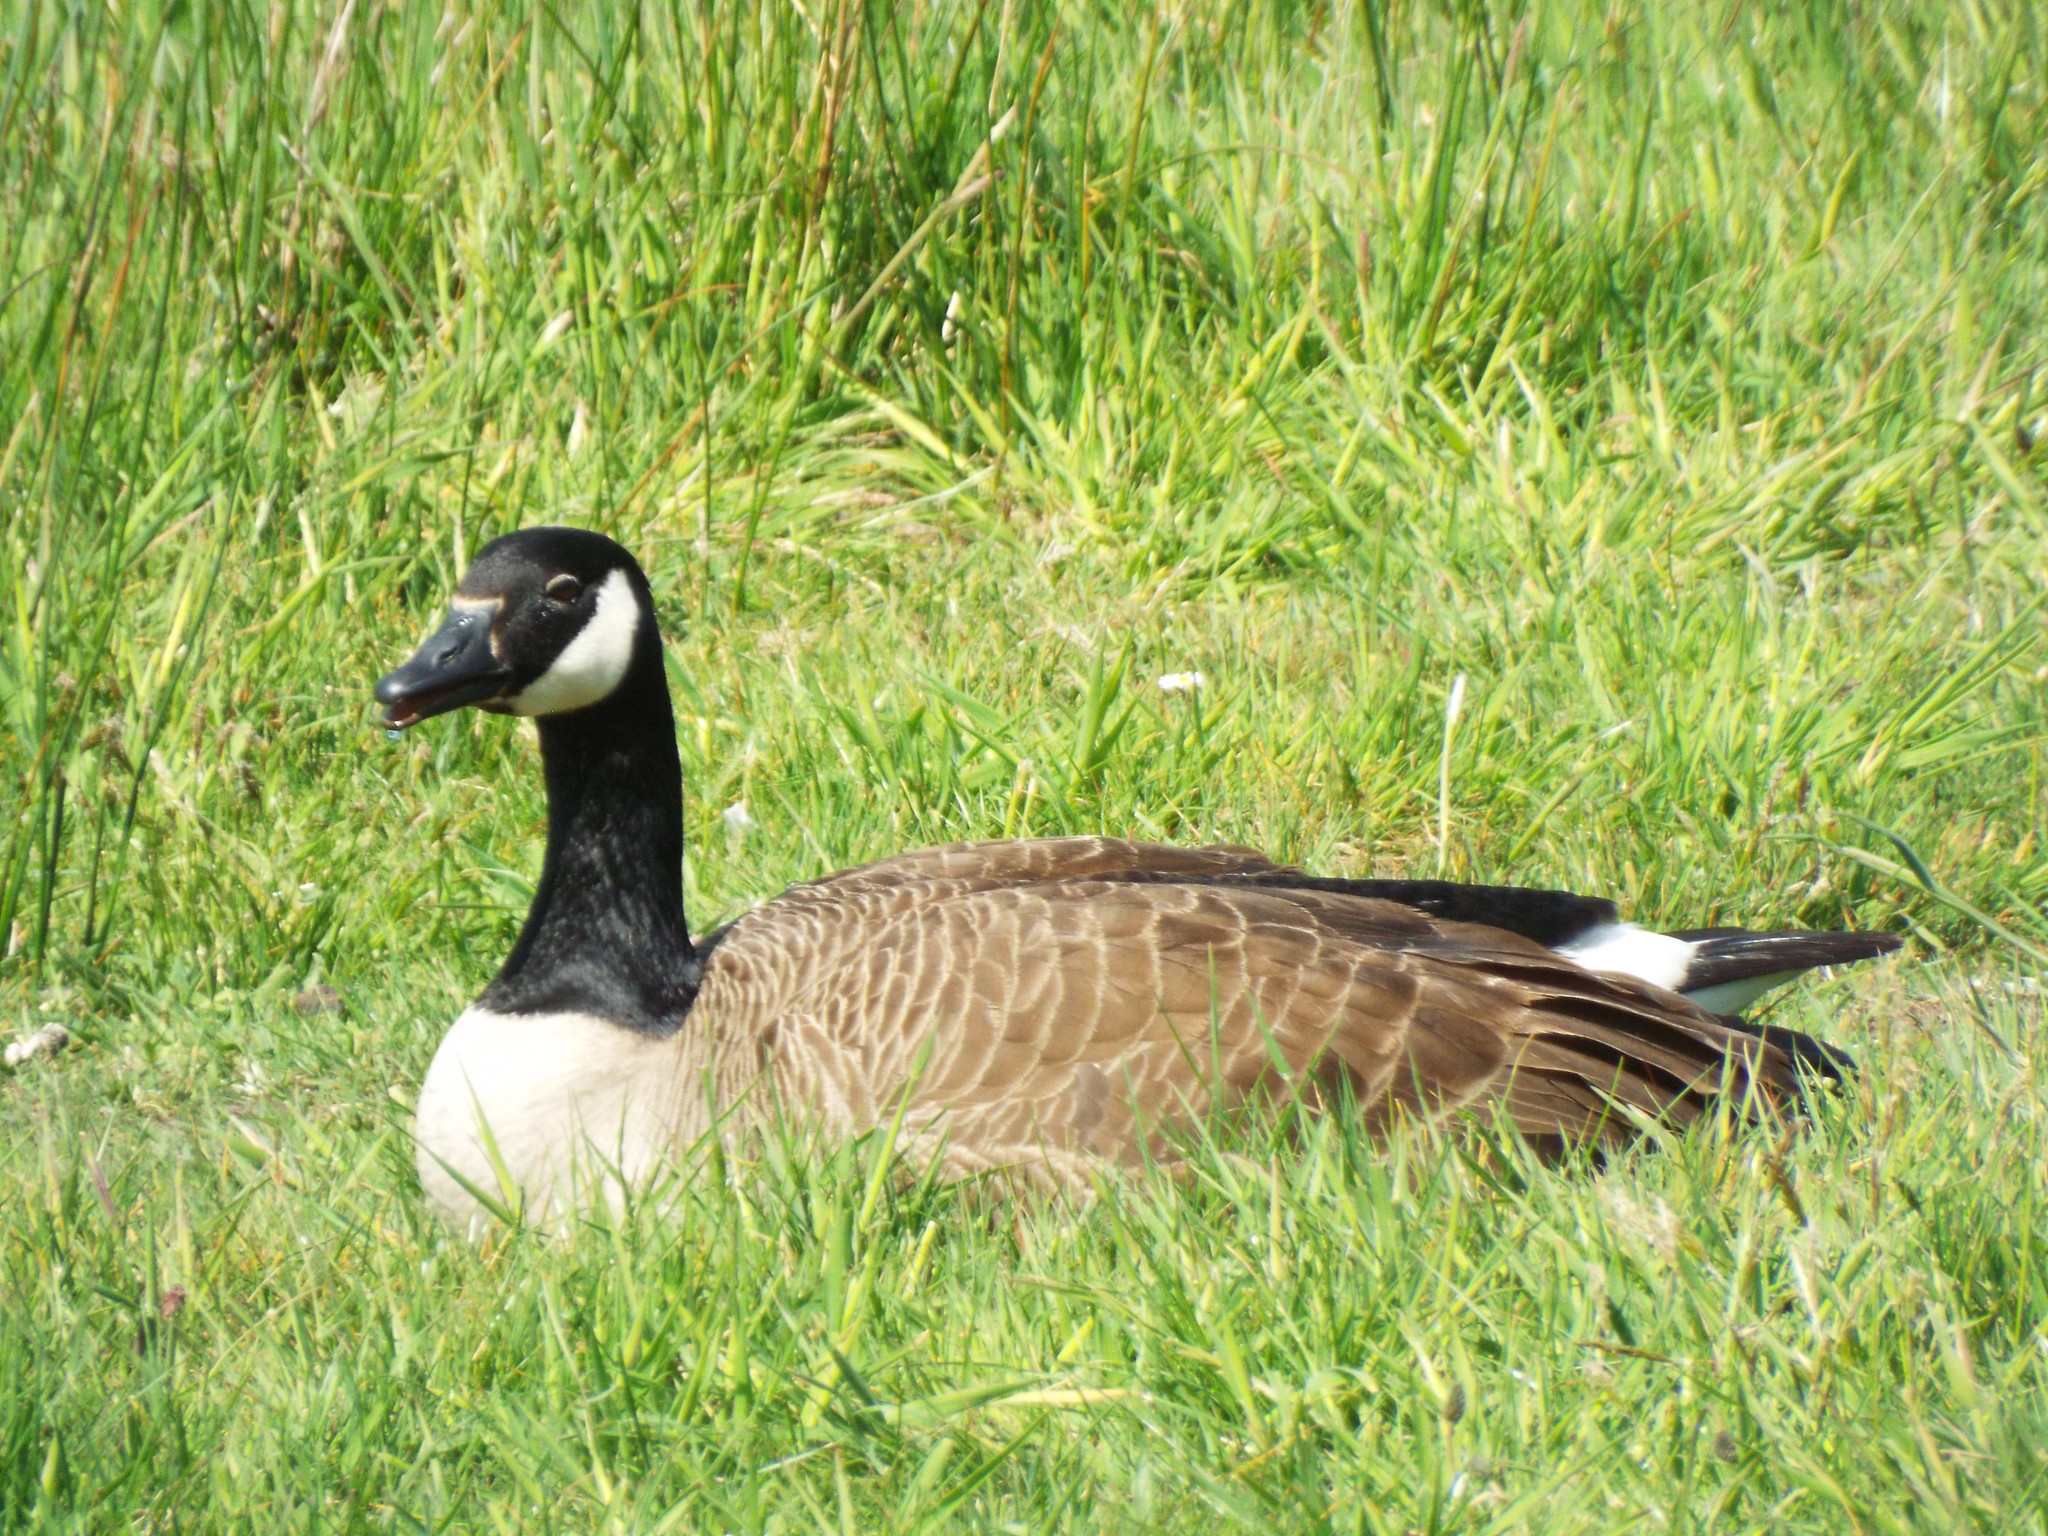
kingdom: Animalia
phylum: Chordata
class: Aves
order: Anseriformes
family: Anatidae
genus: Branta
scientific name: Branta canadensis
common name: Canada goose
